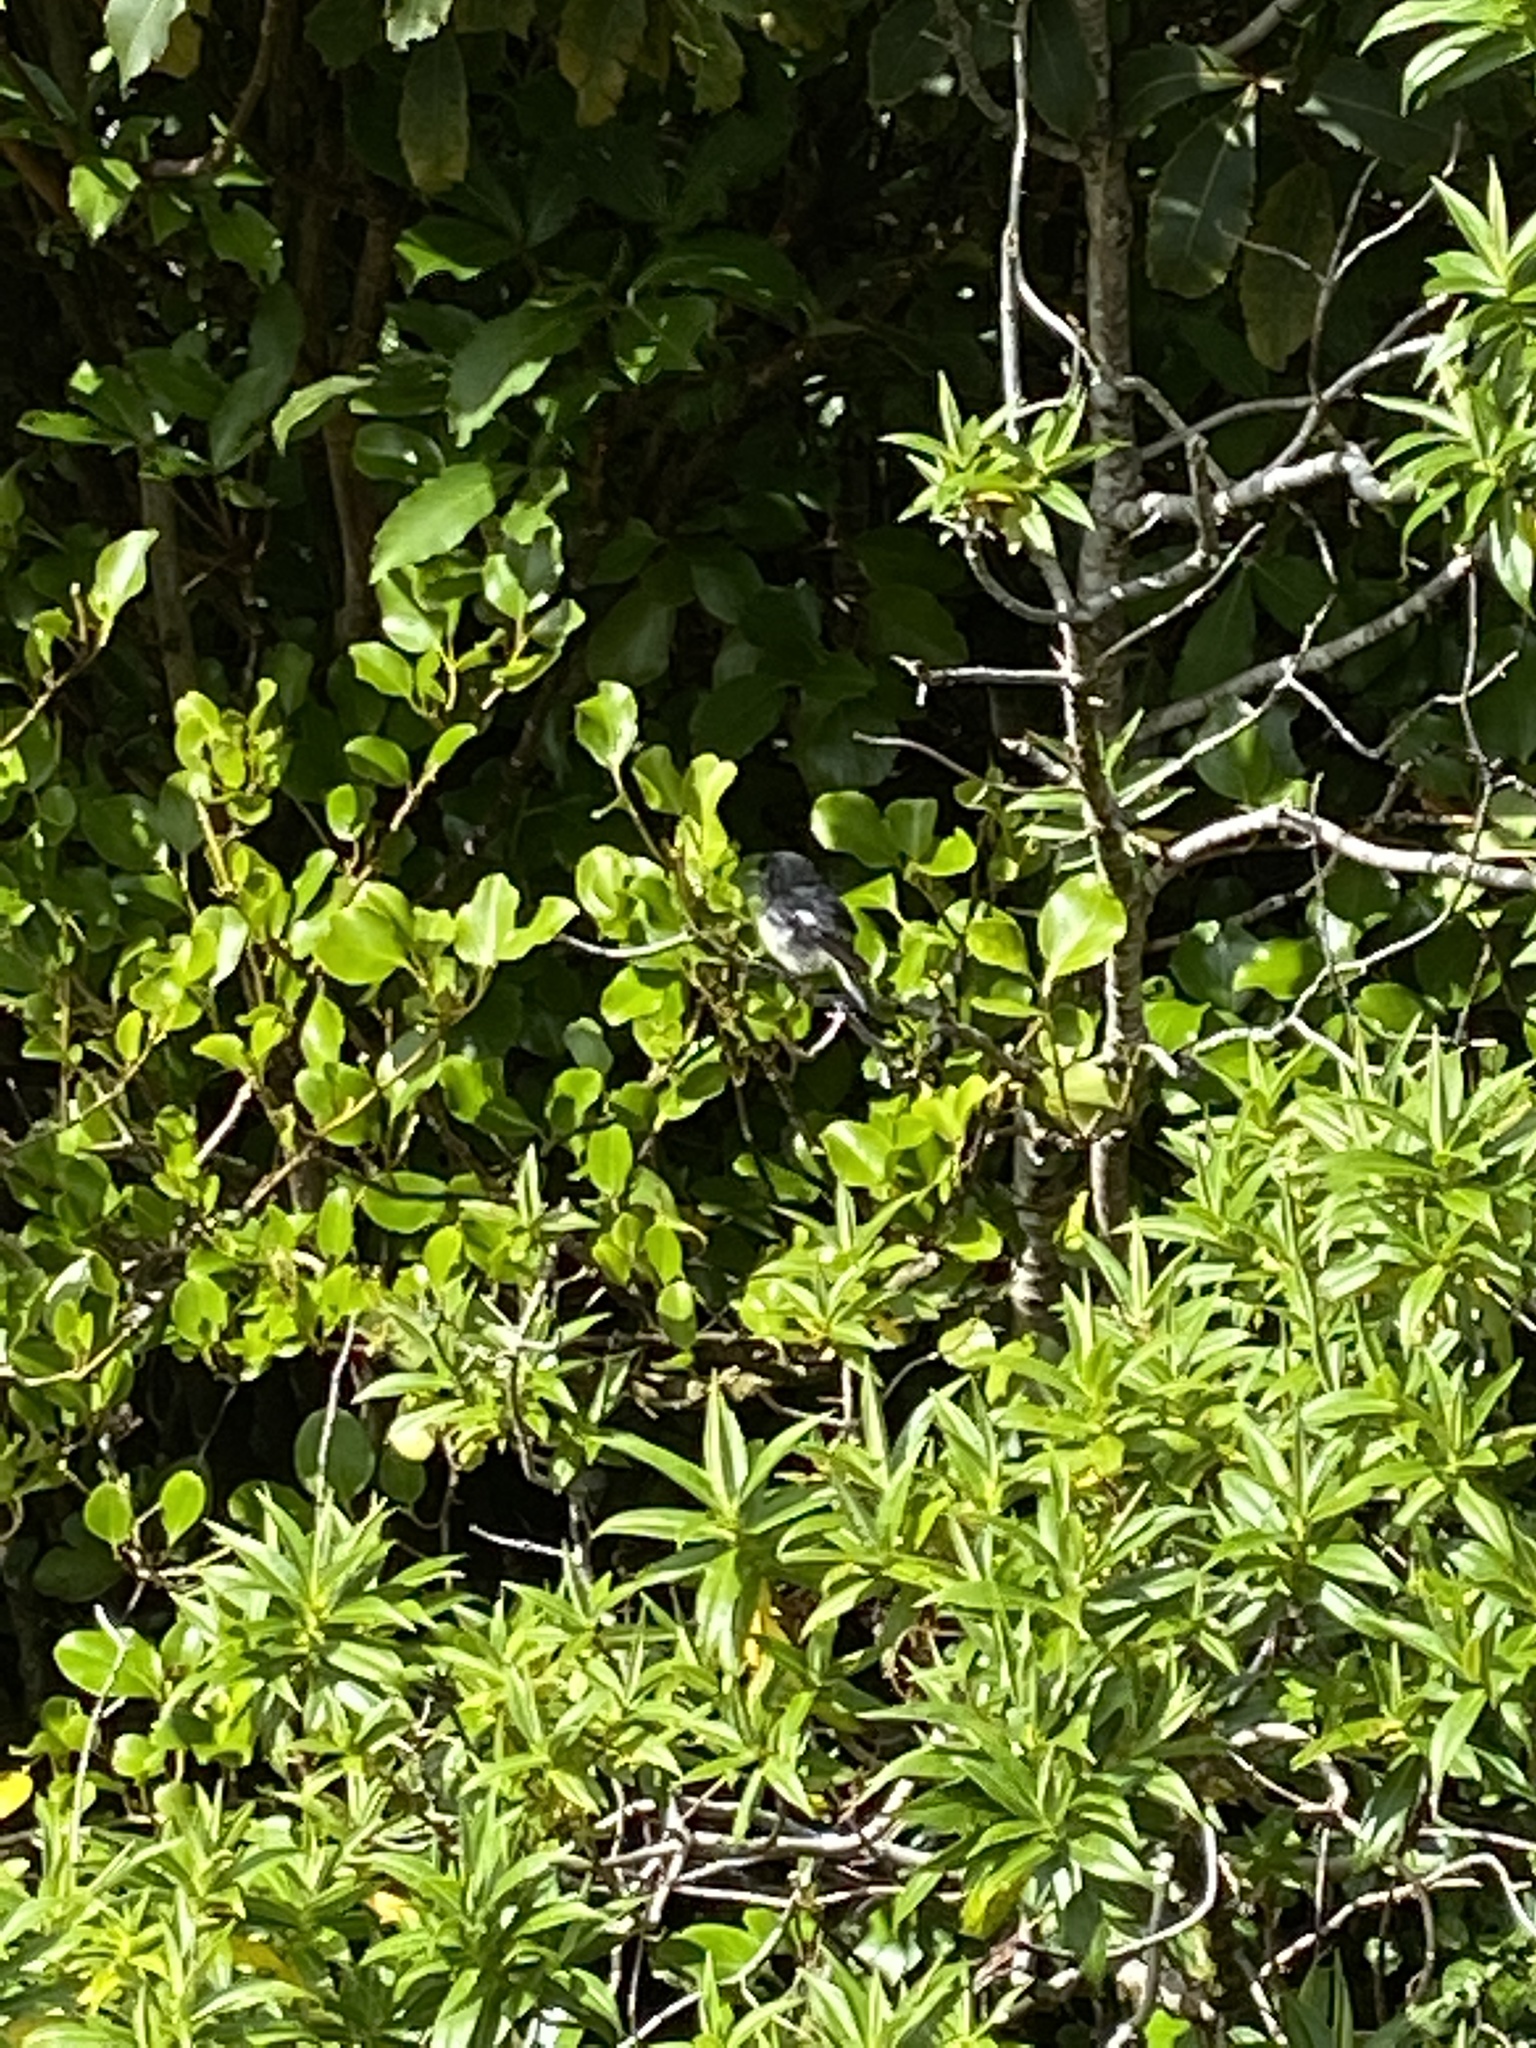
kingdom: Animalia
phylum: Chordata
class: Aves
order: Passeriformes
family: Petroicidae
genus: Petroica
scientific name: Petroica macrocephala
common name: Tomtit
